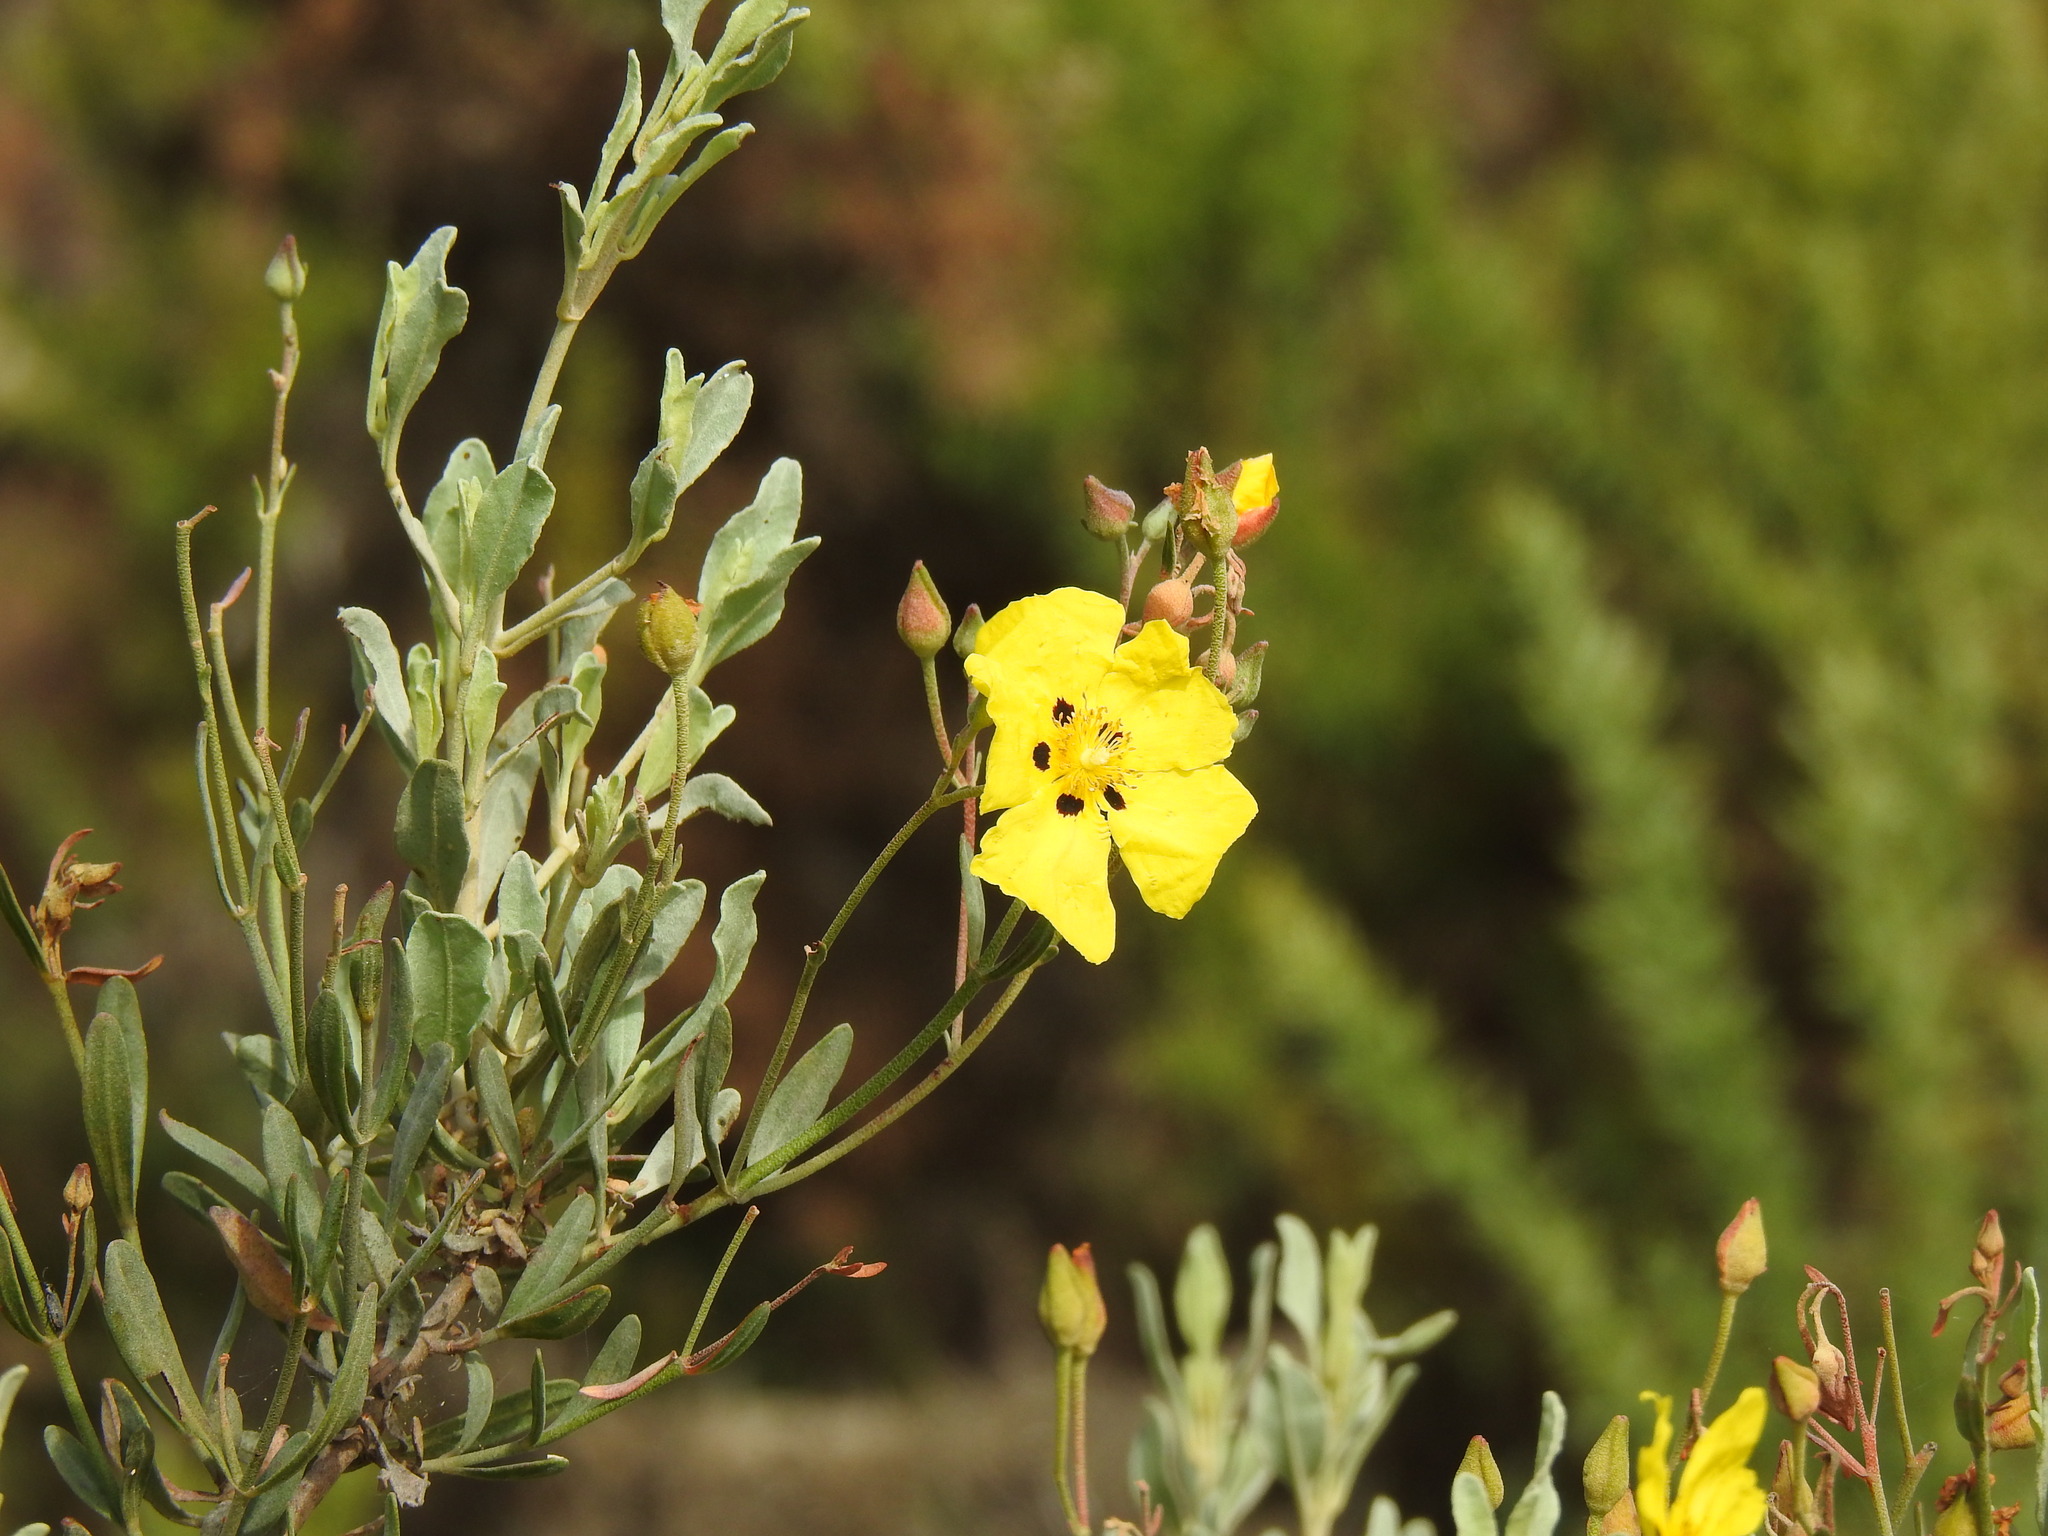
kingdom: Plantae
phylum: Tracheophyta
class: Magnoliopsida
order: Malvales
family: Cistaceae
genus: Halimium
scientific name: Halimium halimifolium
